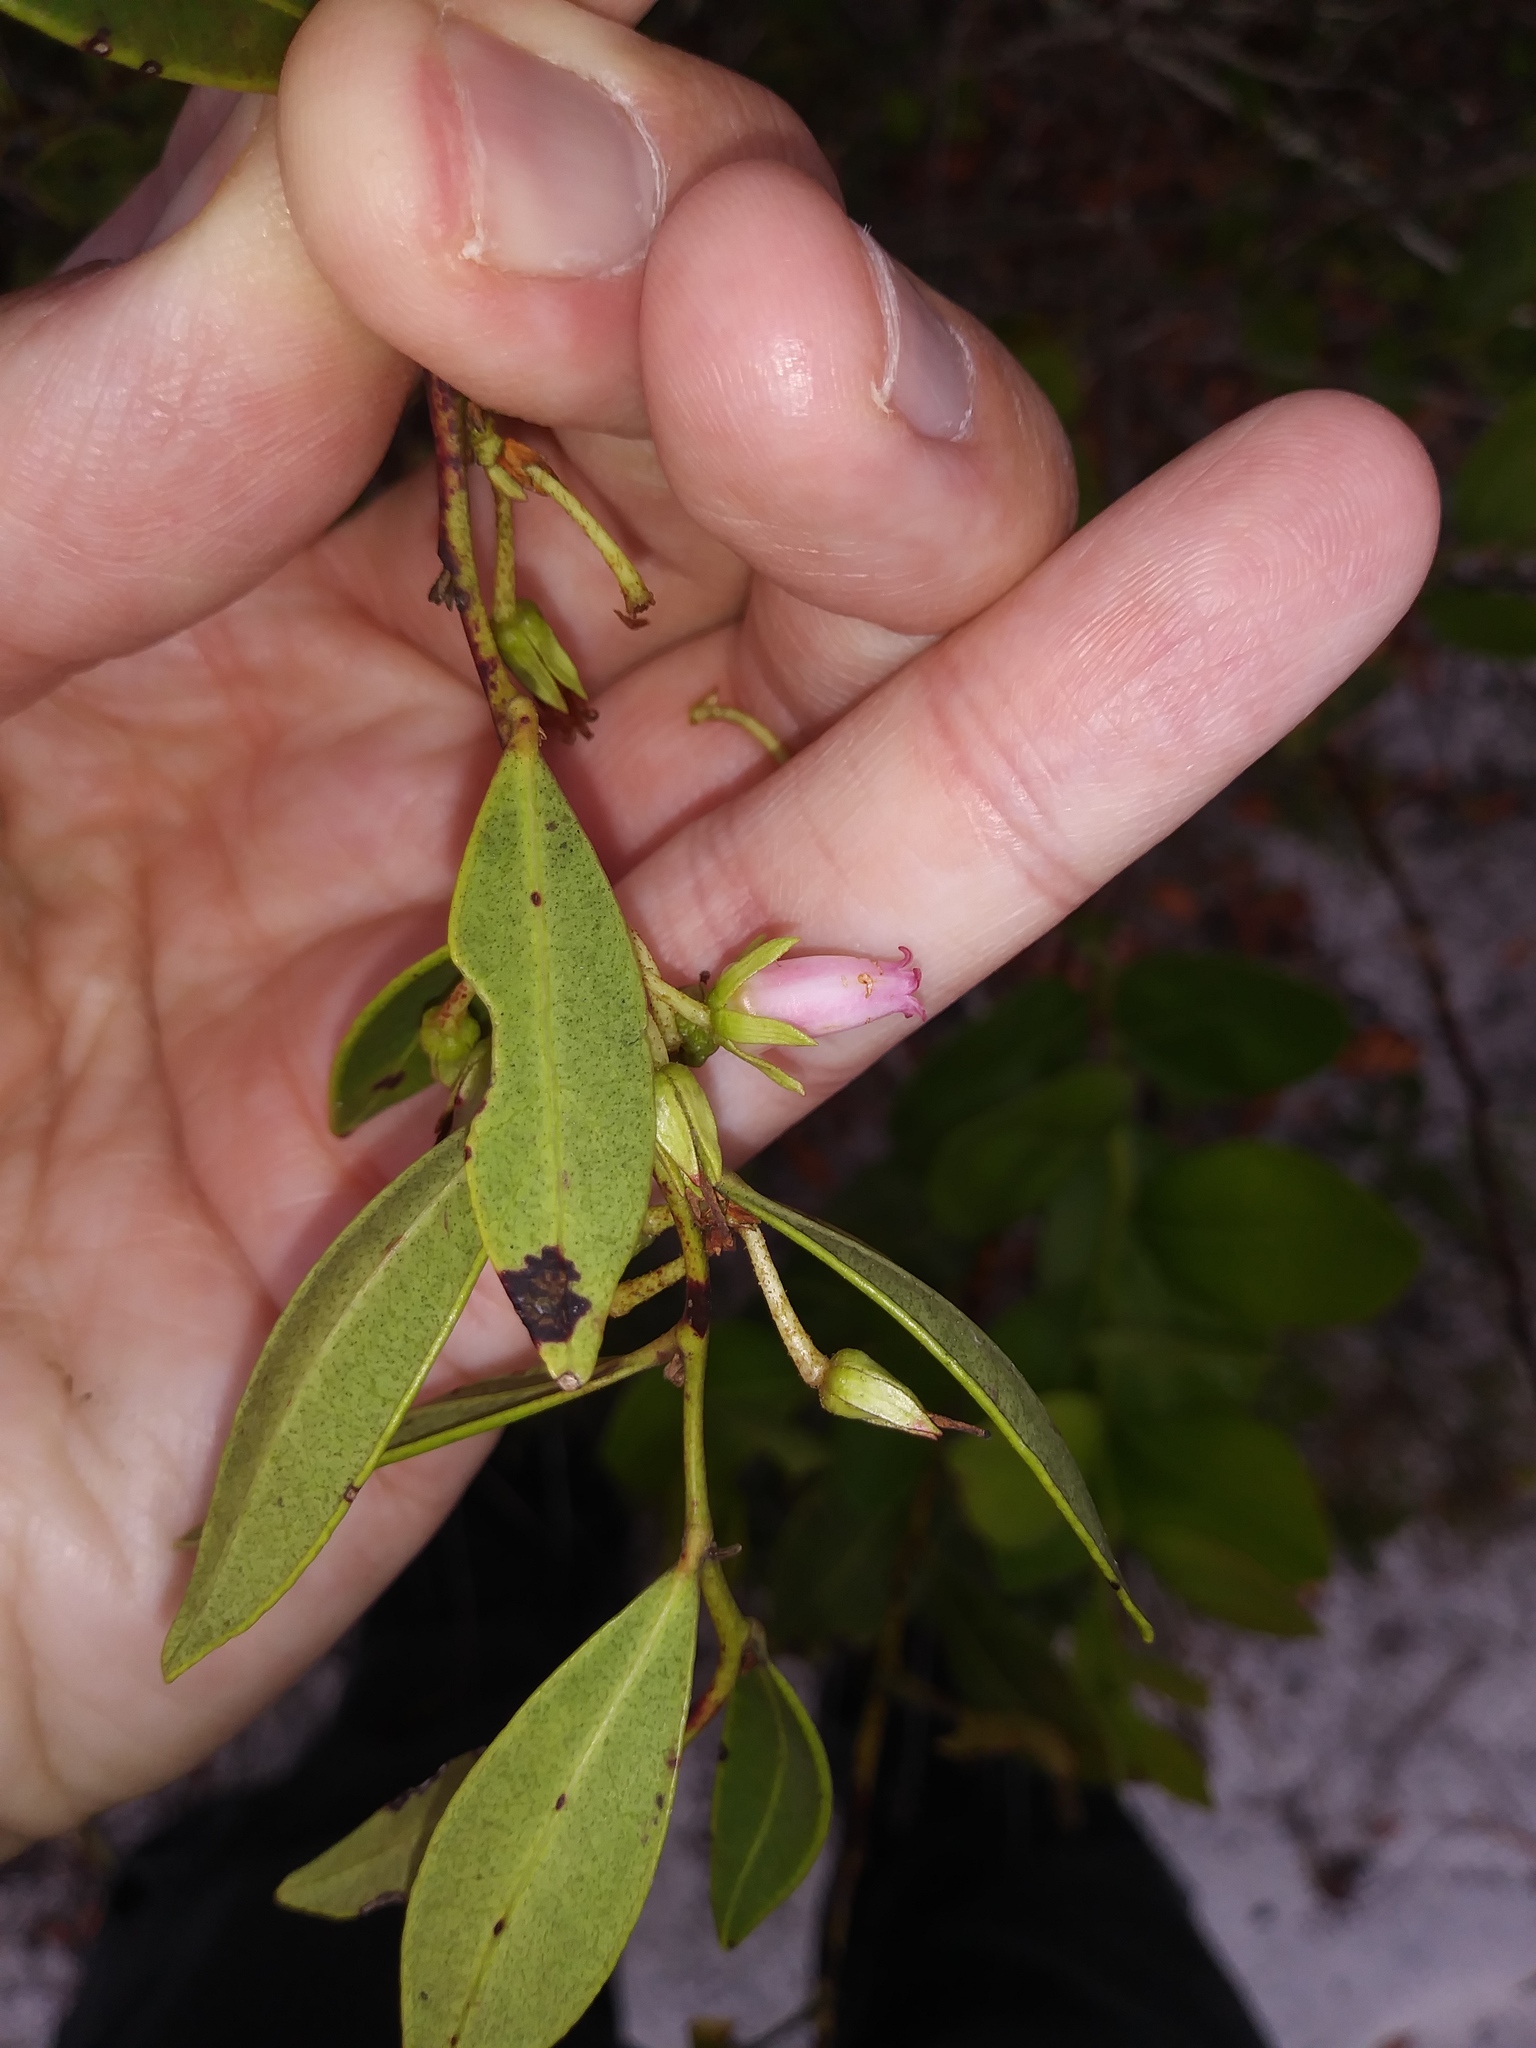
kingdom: Plantae
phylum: Tracheophyta
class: Magnoliopsida
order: Ericales
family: Ericaceae
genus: Lyonia
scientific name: Lyonia lucida
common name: Fetterbush
